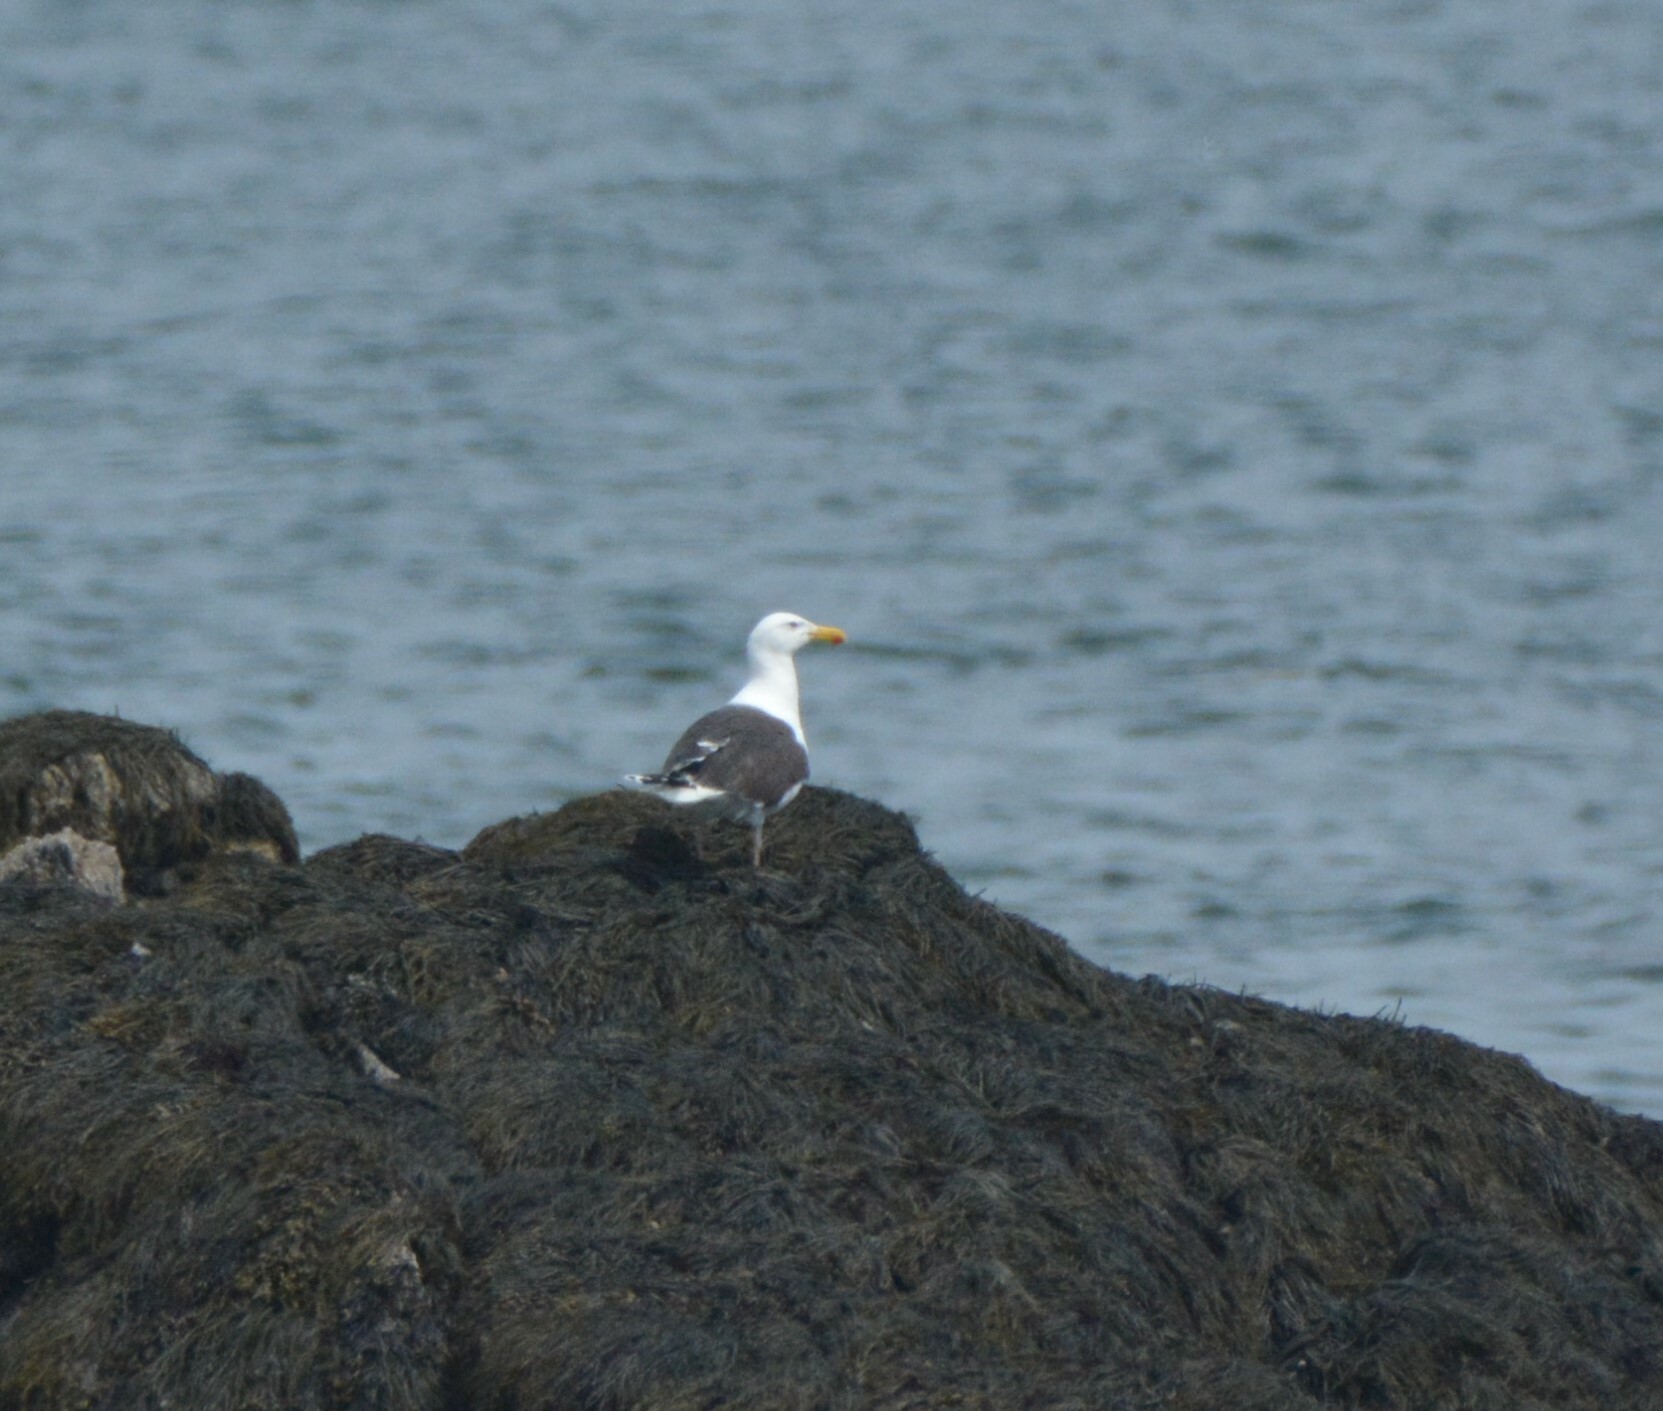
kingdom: Animalia
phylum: Chordata
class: Aves
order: Charadriiformes
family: Laridae
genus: Larus
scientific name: Larus marinus
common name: Great black-backed gull
